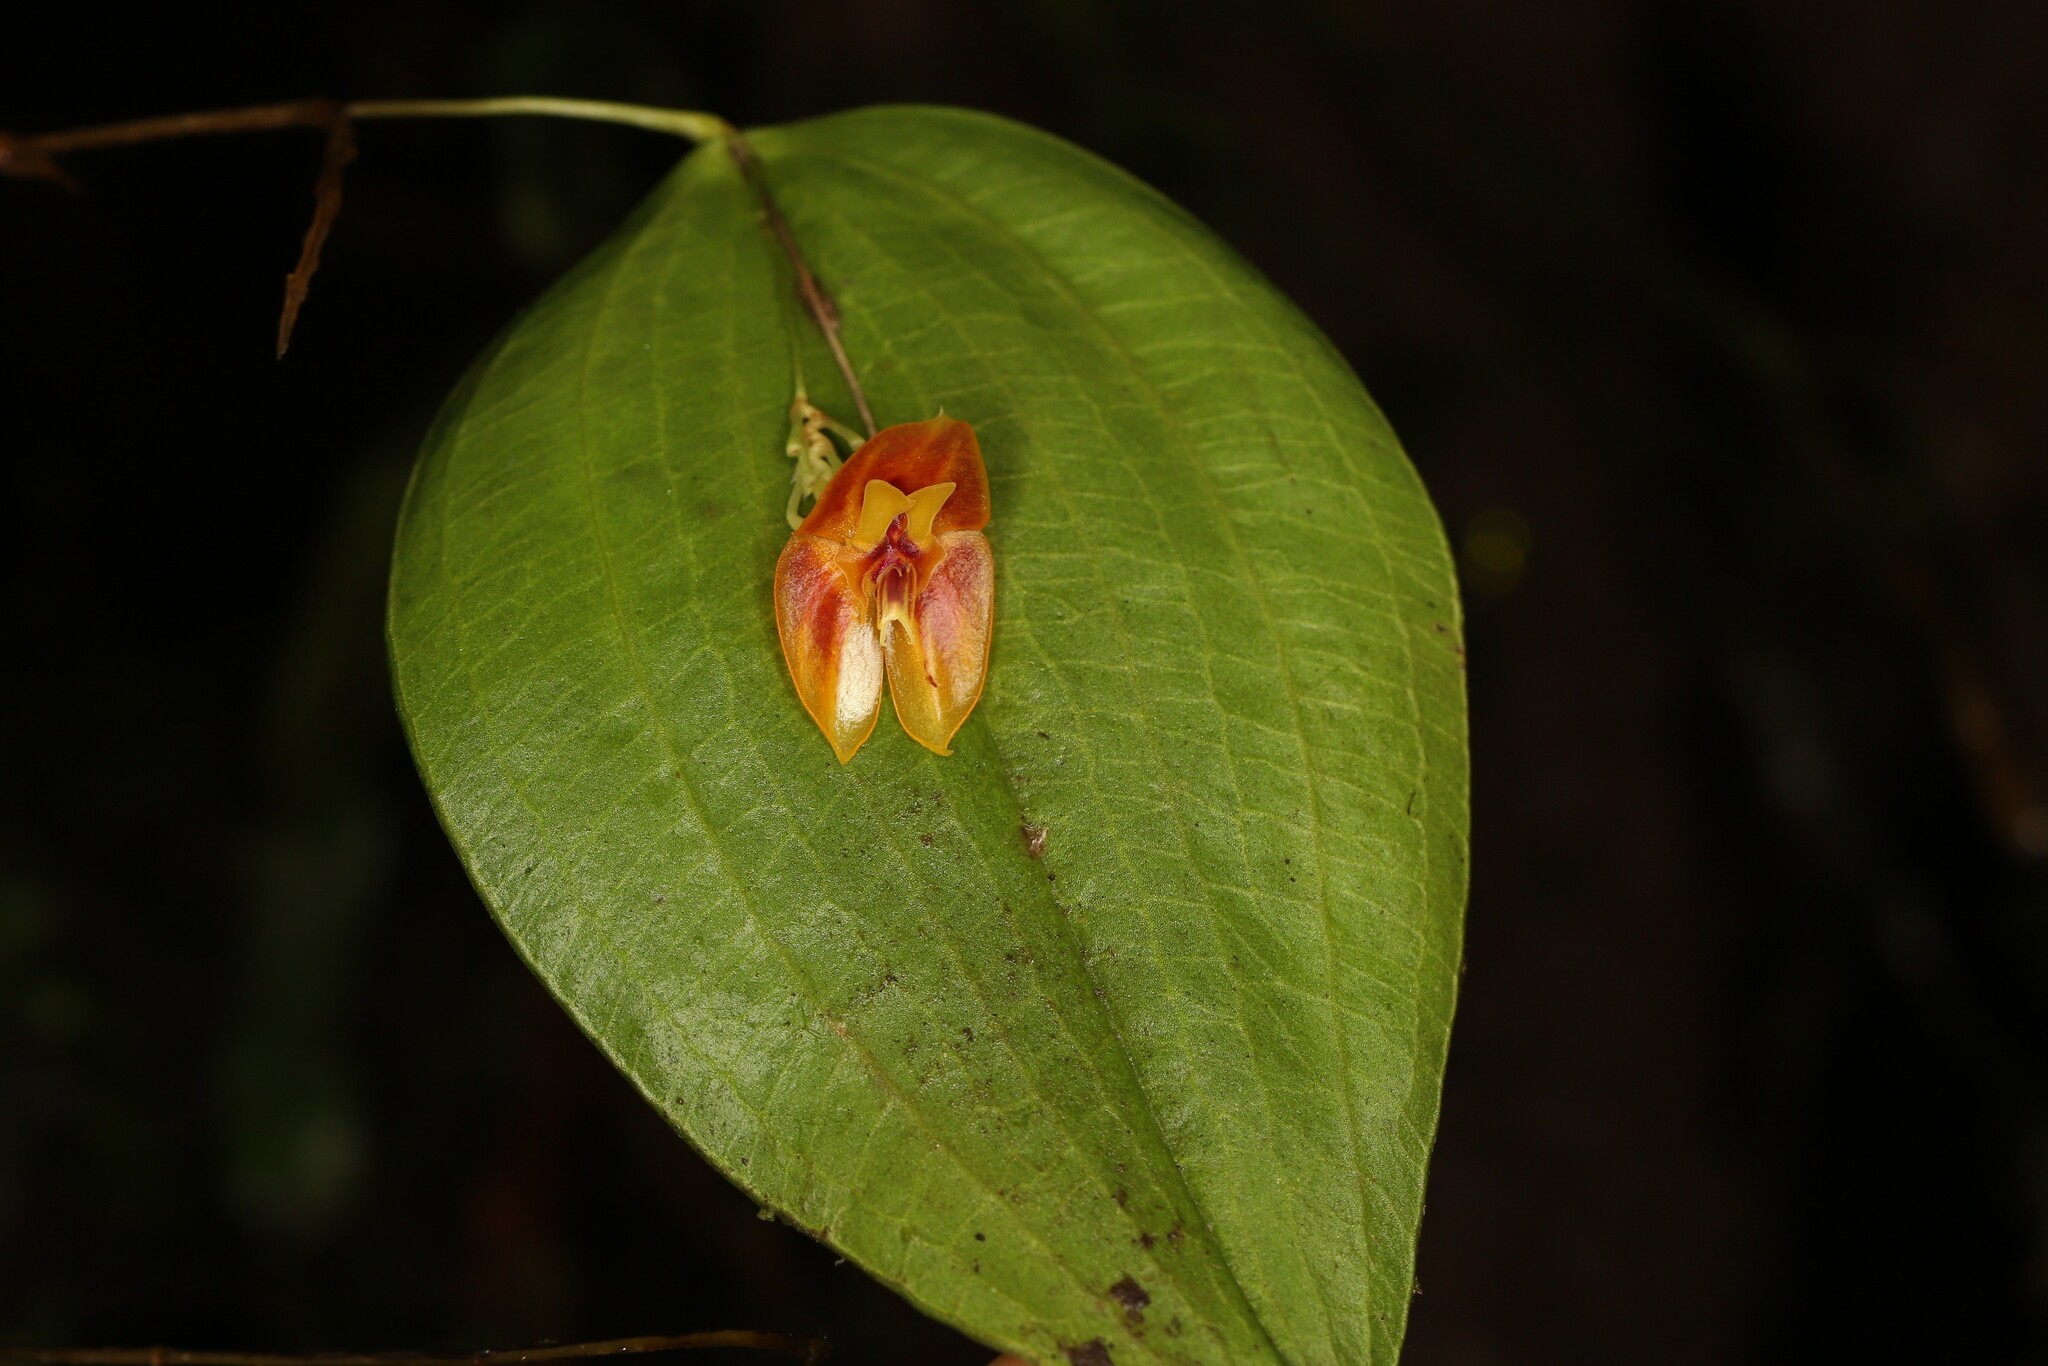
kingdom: Plantae
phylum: Tracheophyta
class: Liliopsida
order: Asparagales
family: Orchidaceae
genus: Lepanthes
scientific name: Lepanthes furcata
